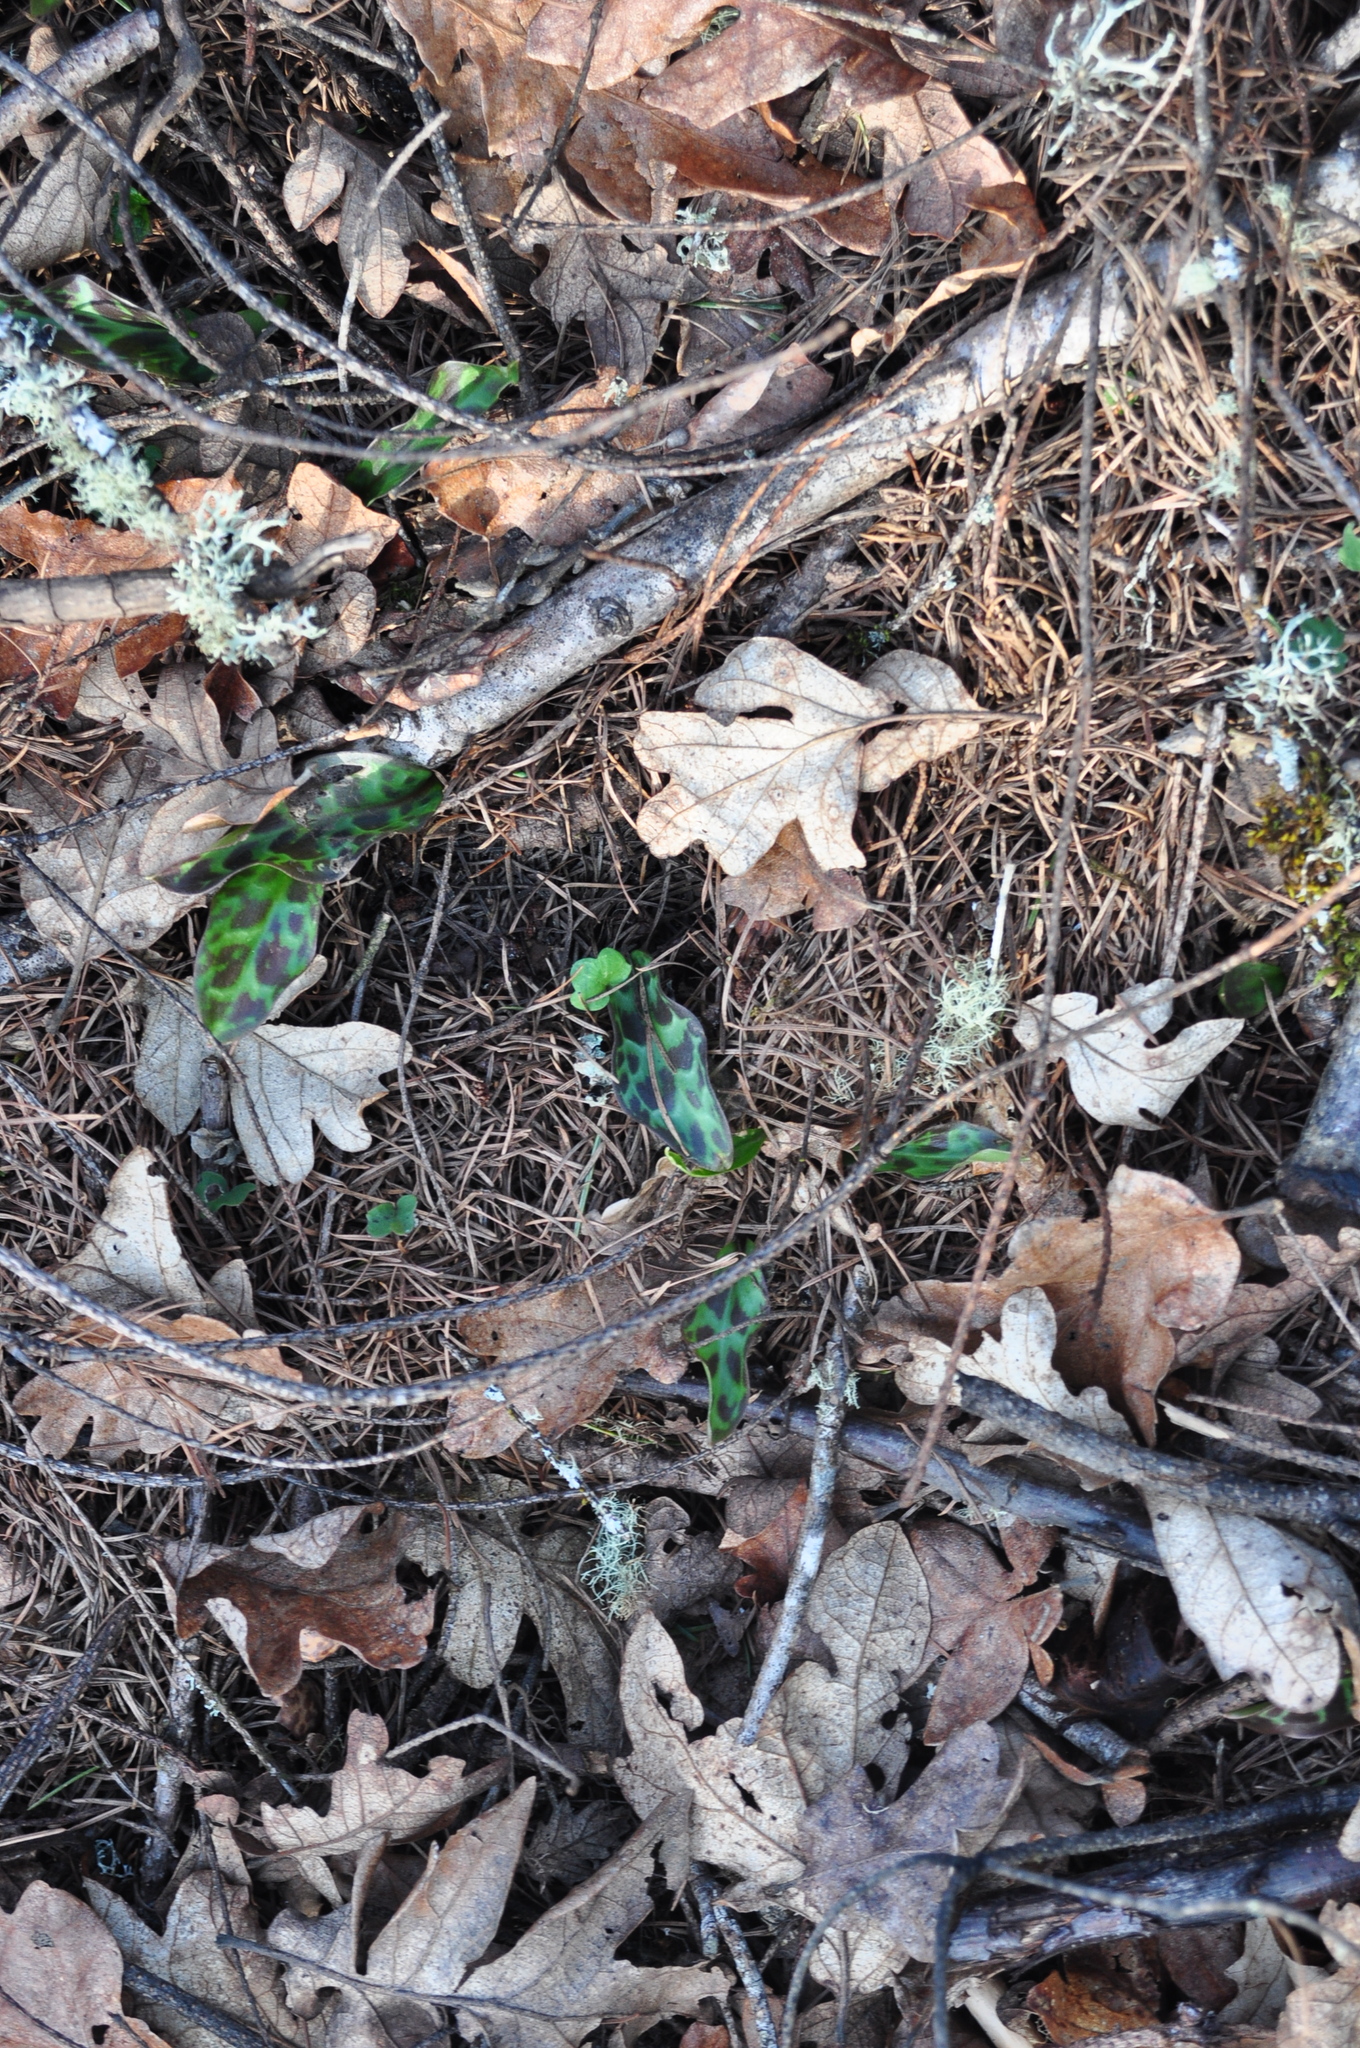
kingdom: Plantae
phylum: Tracheophyta
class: Liliopsida
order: Liliales
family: Liliaceae
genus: Erythronium
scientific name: Erythronium oregonum
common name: Giant adder's-tongue
